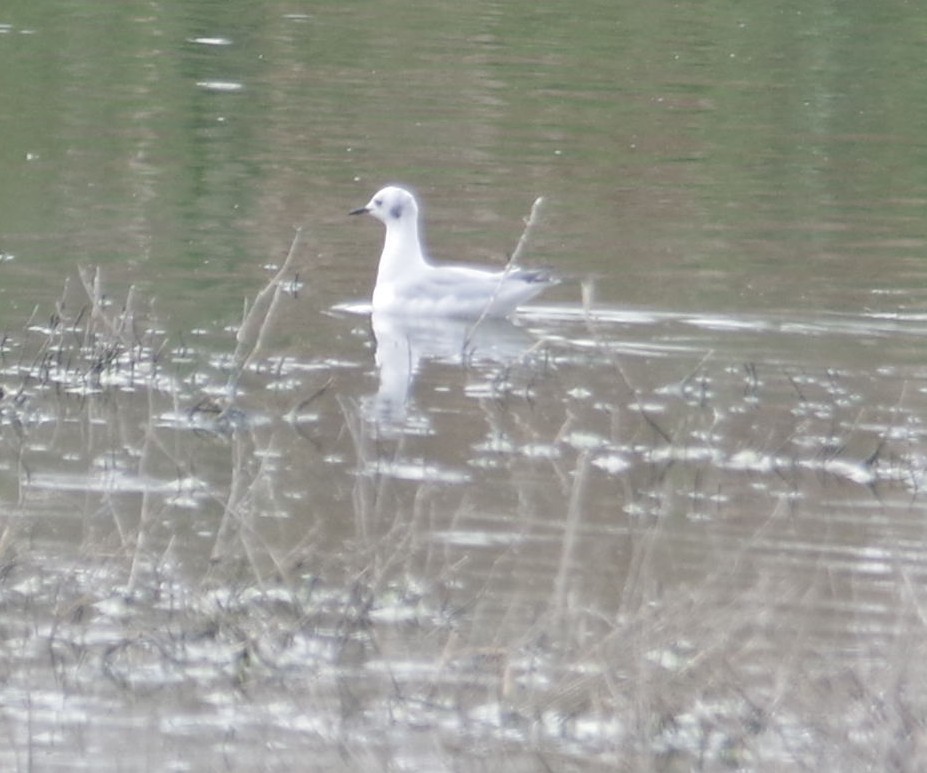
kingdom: Animalia
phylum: Chordata
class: Aves
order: Charadriiformes
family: Laridae
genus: Chroicocephalus
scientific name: Chroicocephalus philadelphia
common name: Bonaparte's gull
